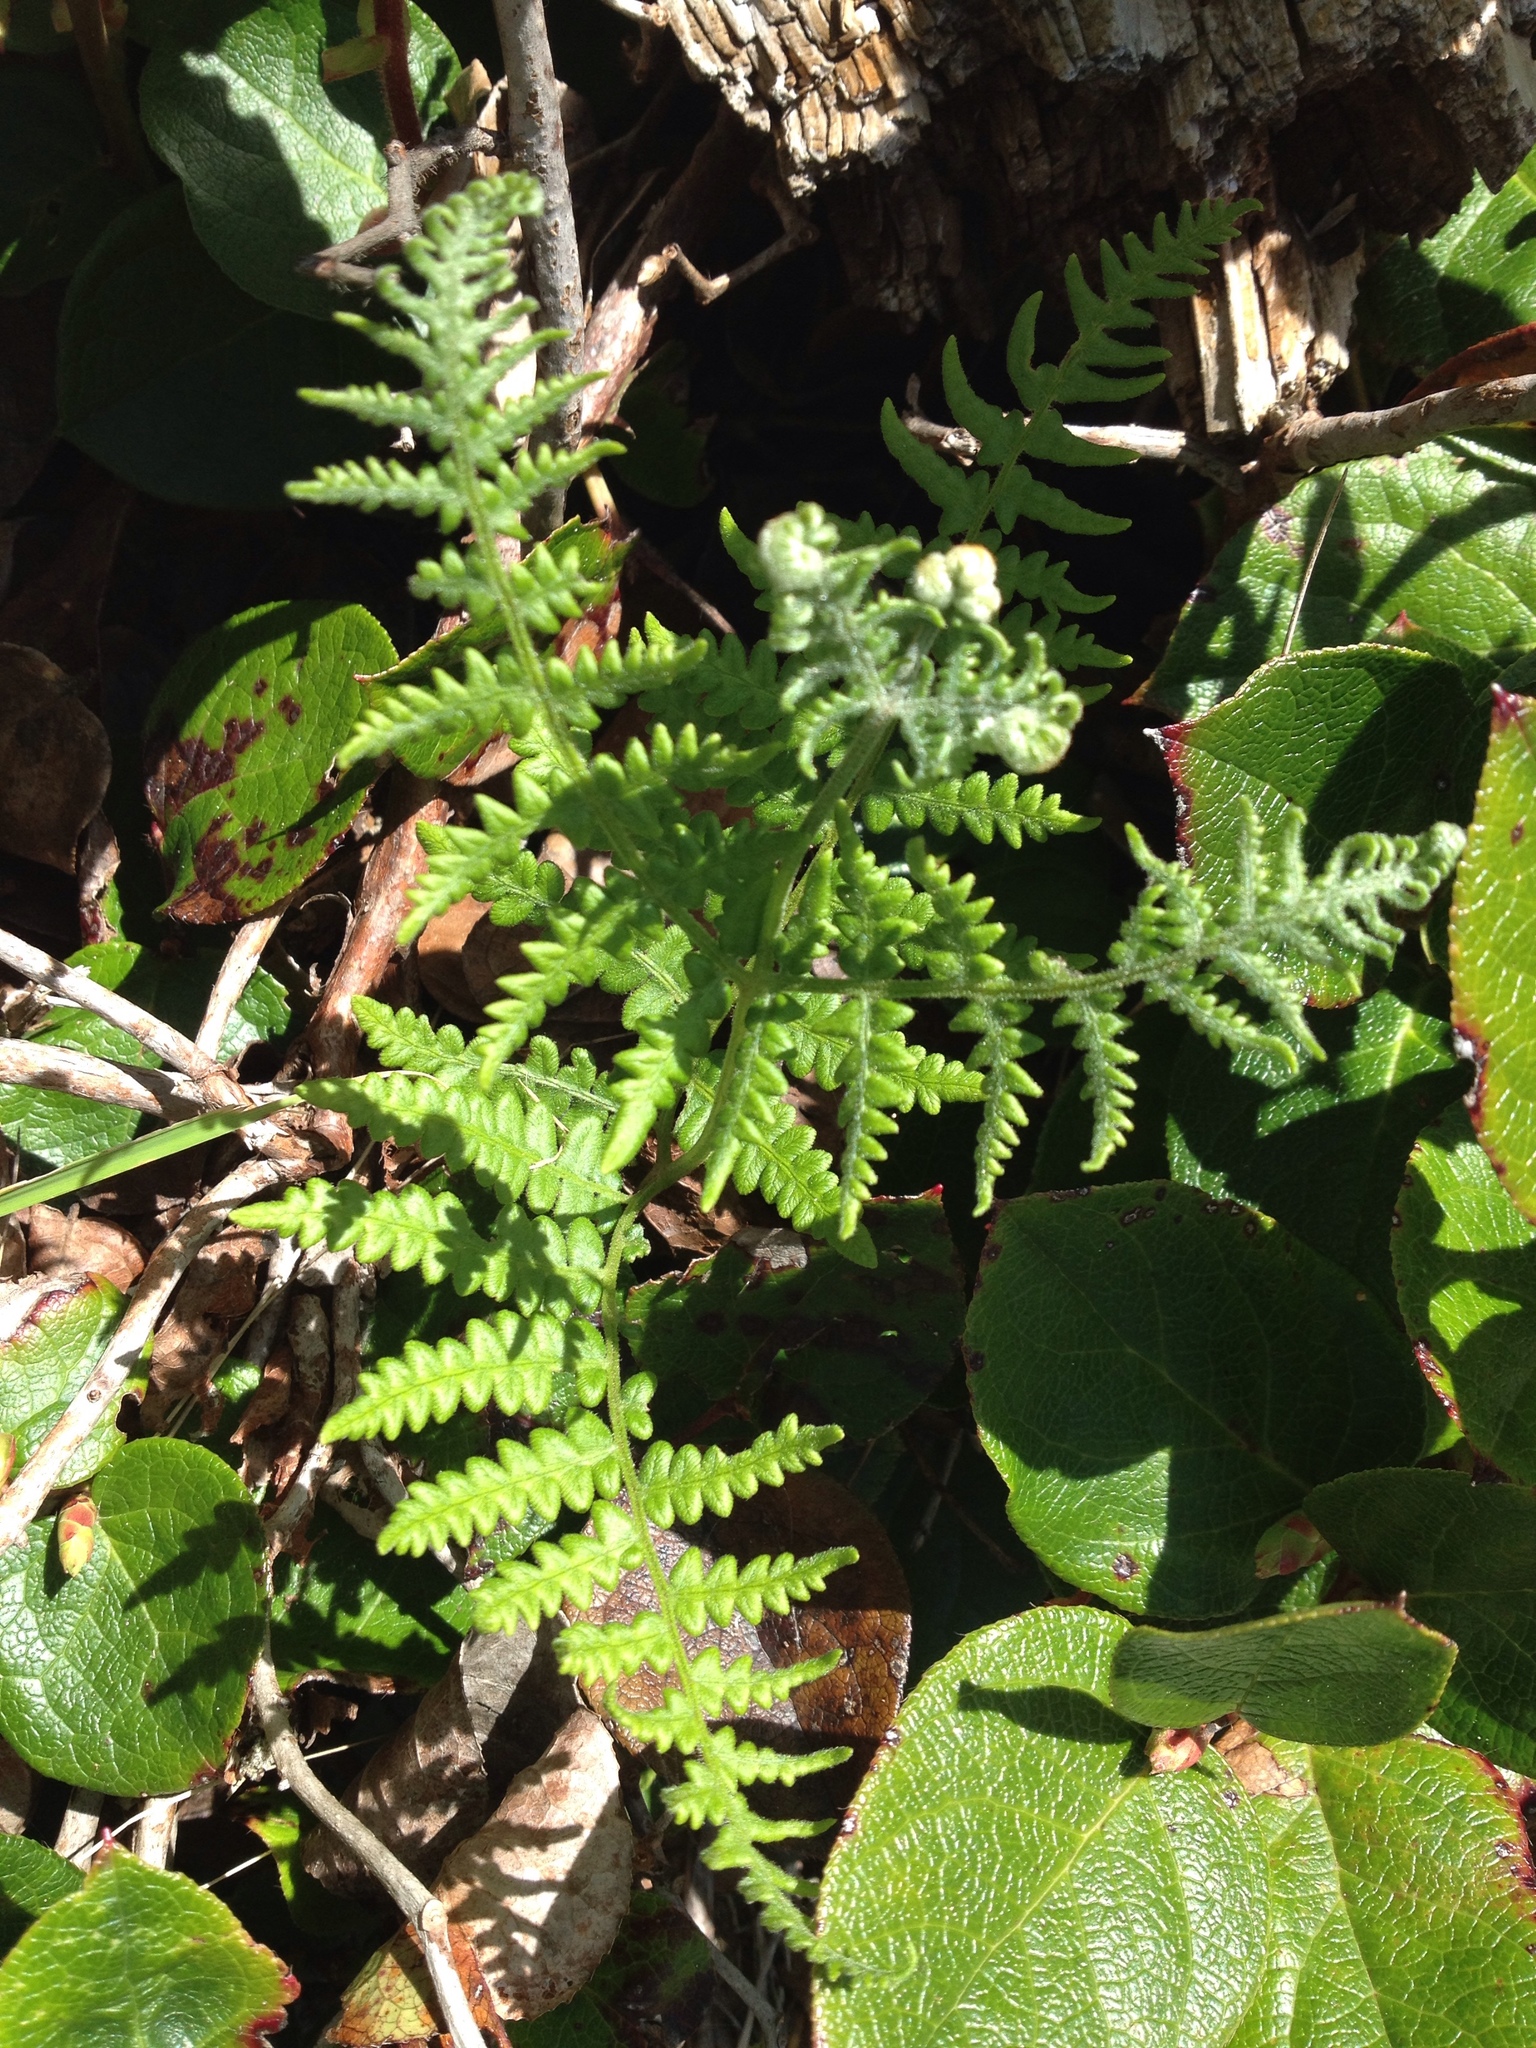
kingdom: Plantae
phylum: Tracheophyta
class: Polypodiopsida
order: Polypodiales
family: Dennstaedtiaceae
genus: Pteridium
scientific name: Pteridium aquilinum
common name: Bracken
